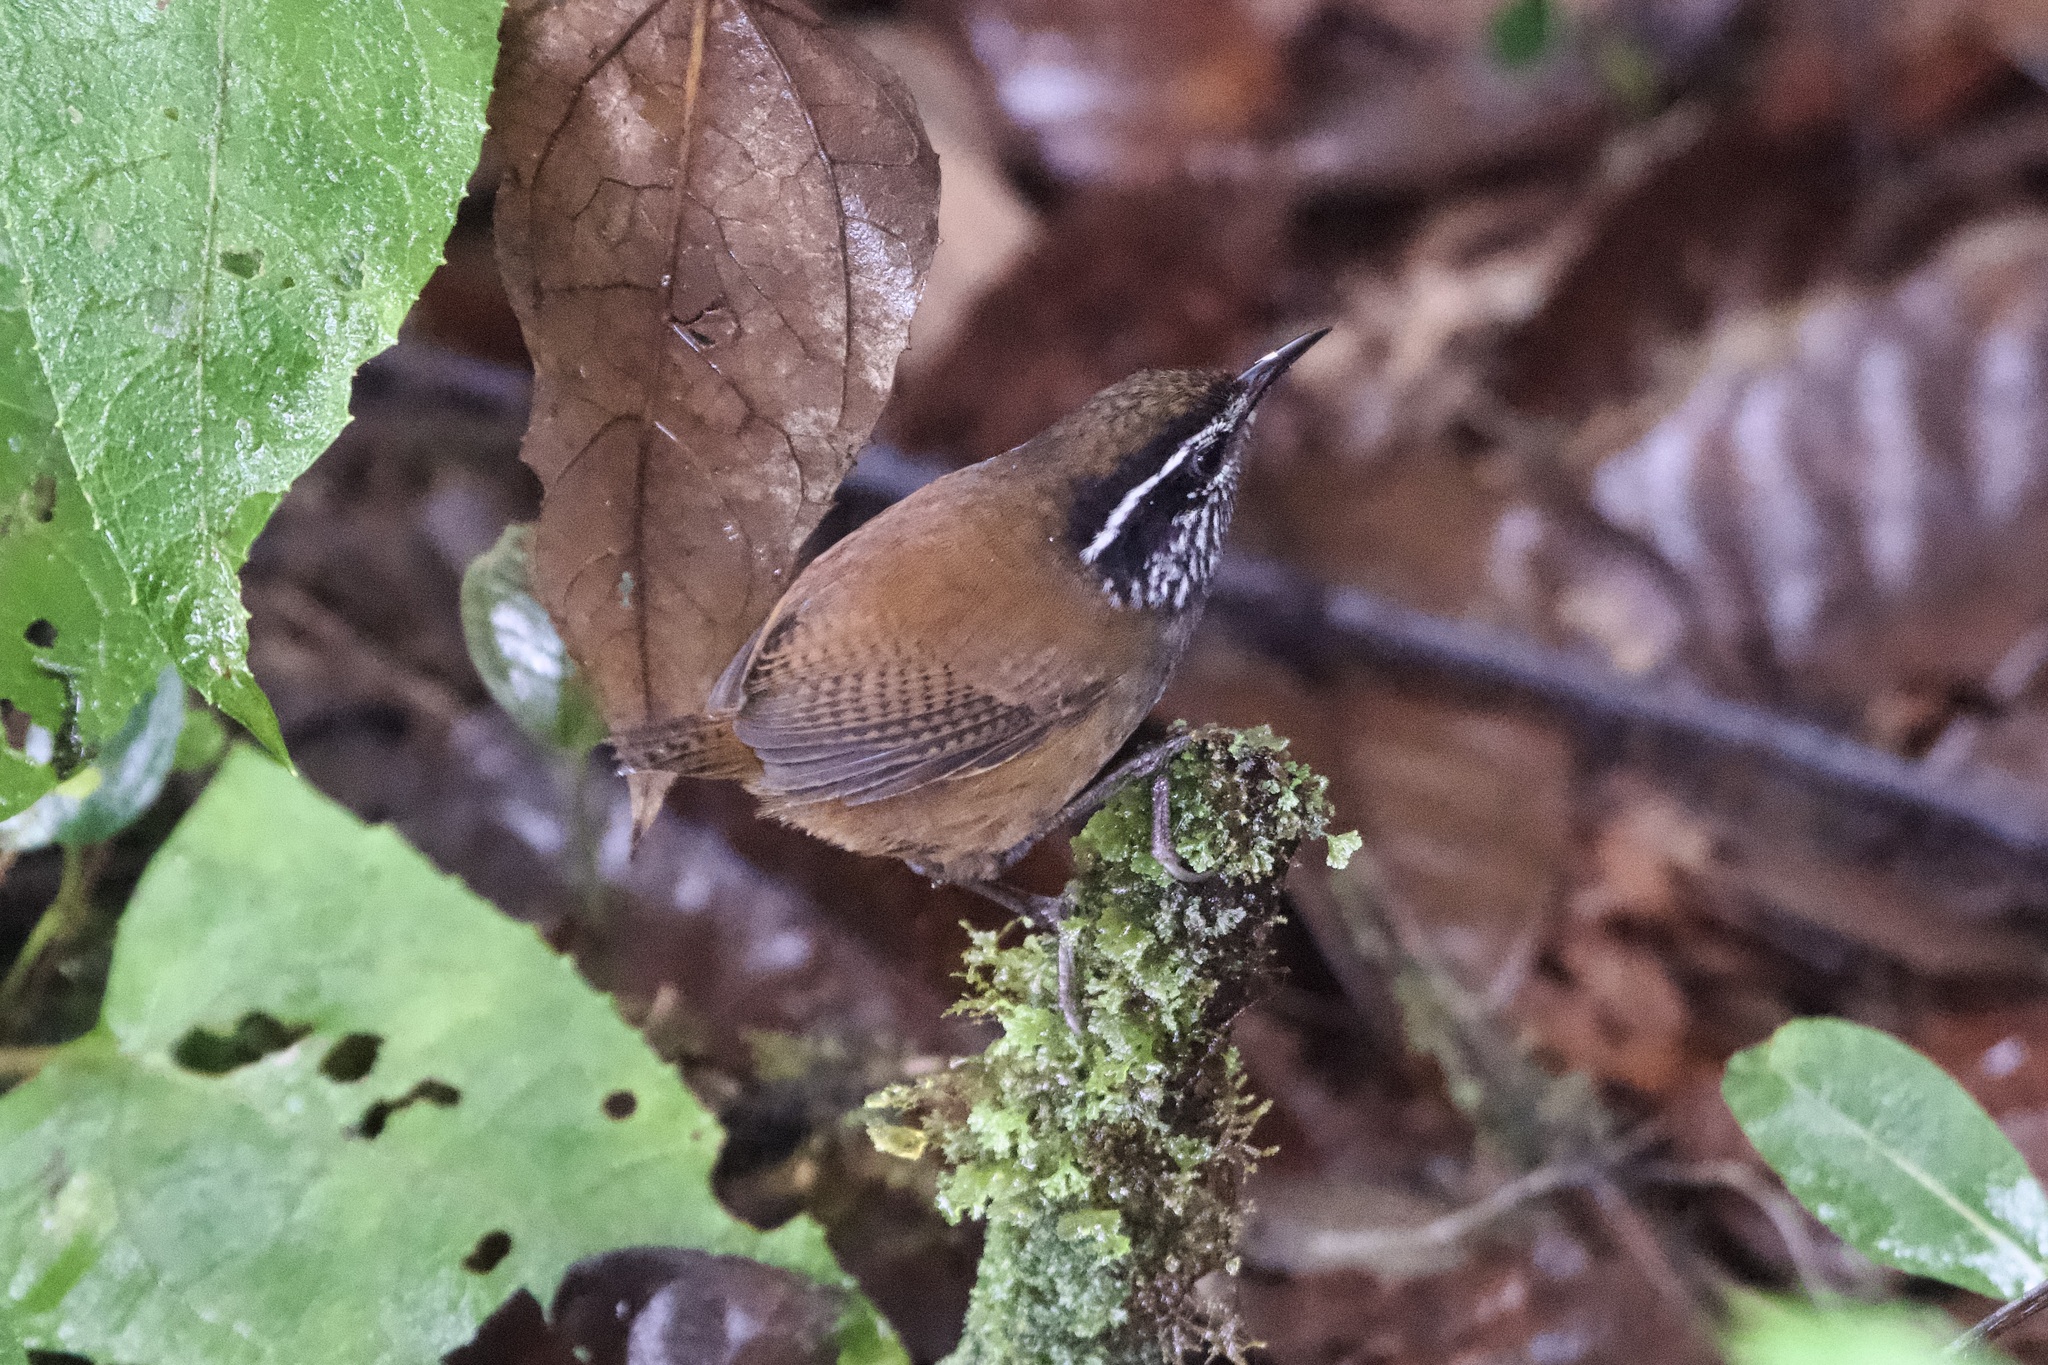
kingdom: Animalia
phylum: Chordata
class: Aves
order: Passeriformes
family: Troglodytidae
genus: Henicorhina
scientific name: Henicorhina negreti
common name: Munchique wood-wren
